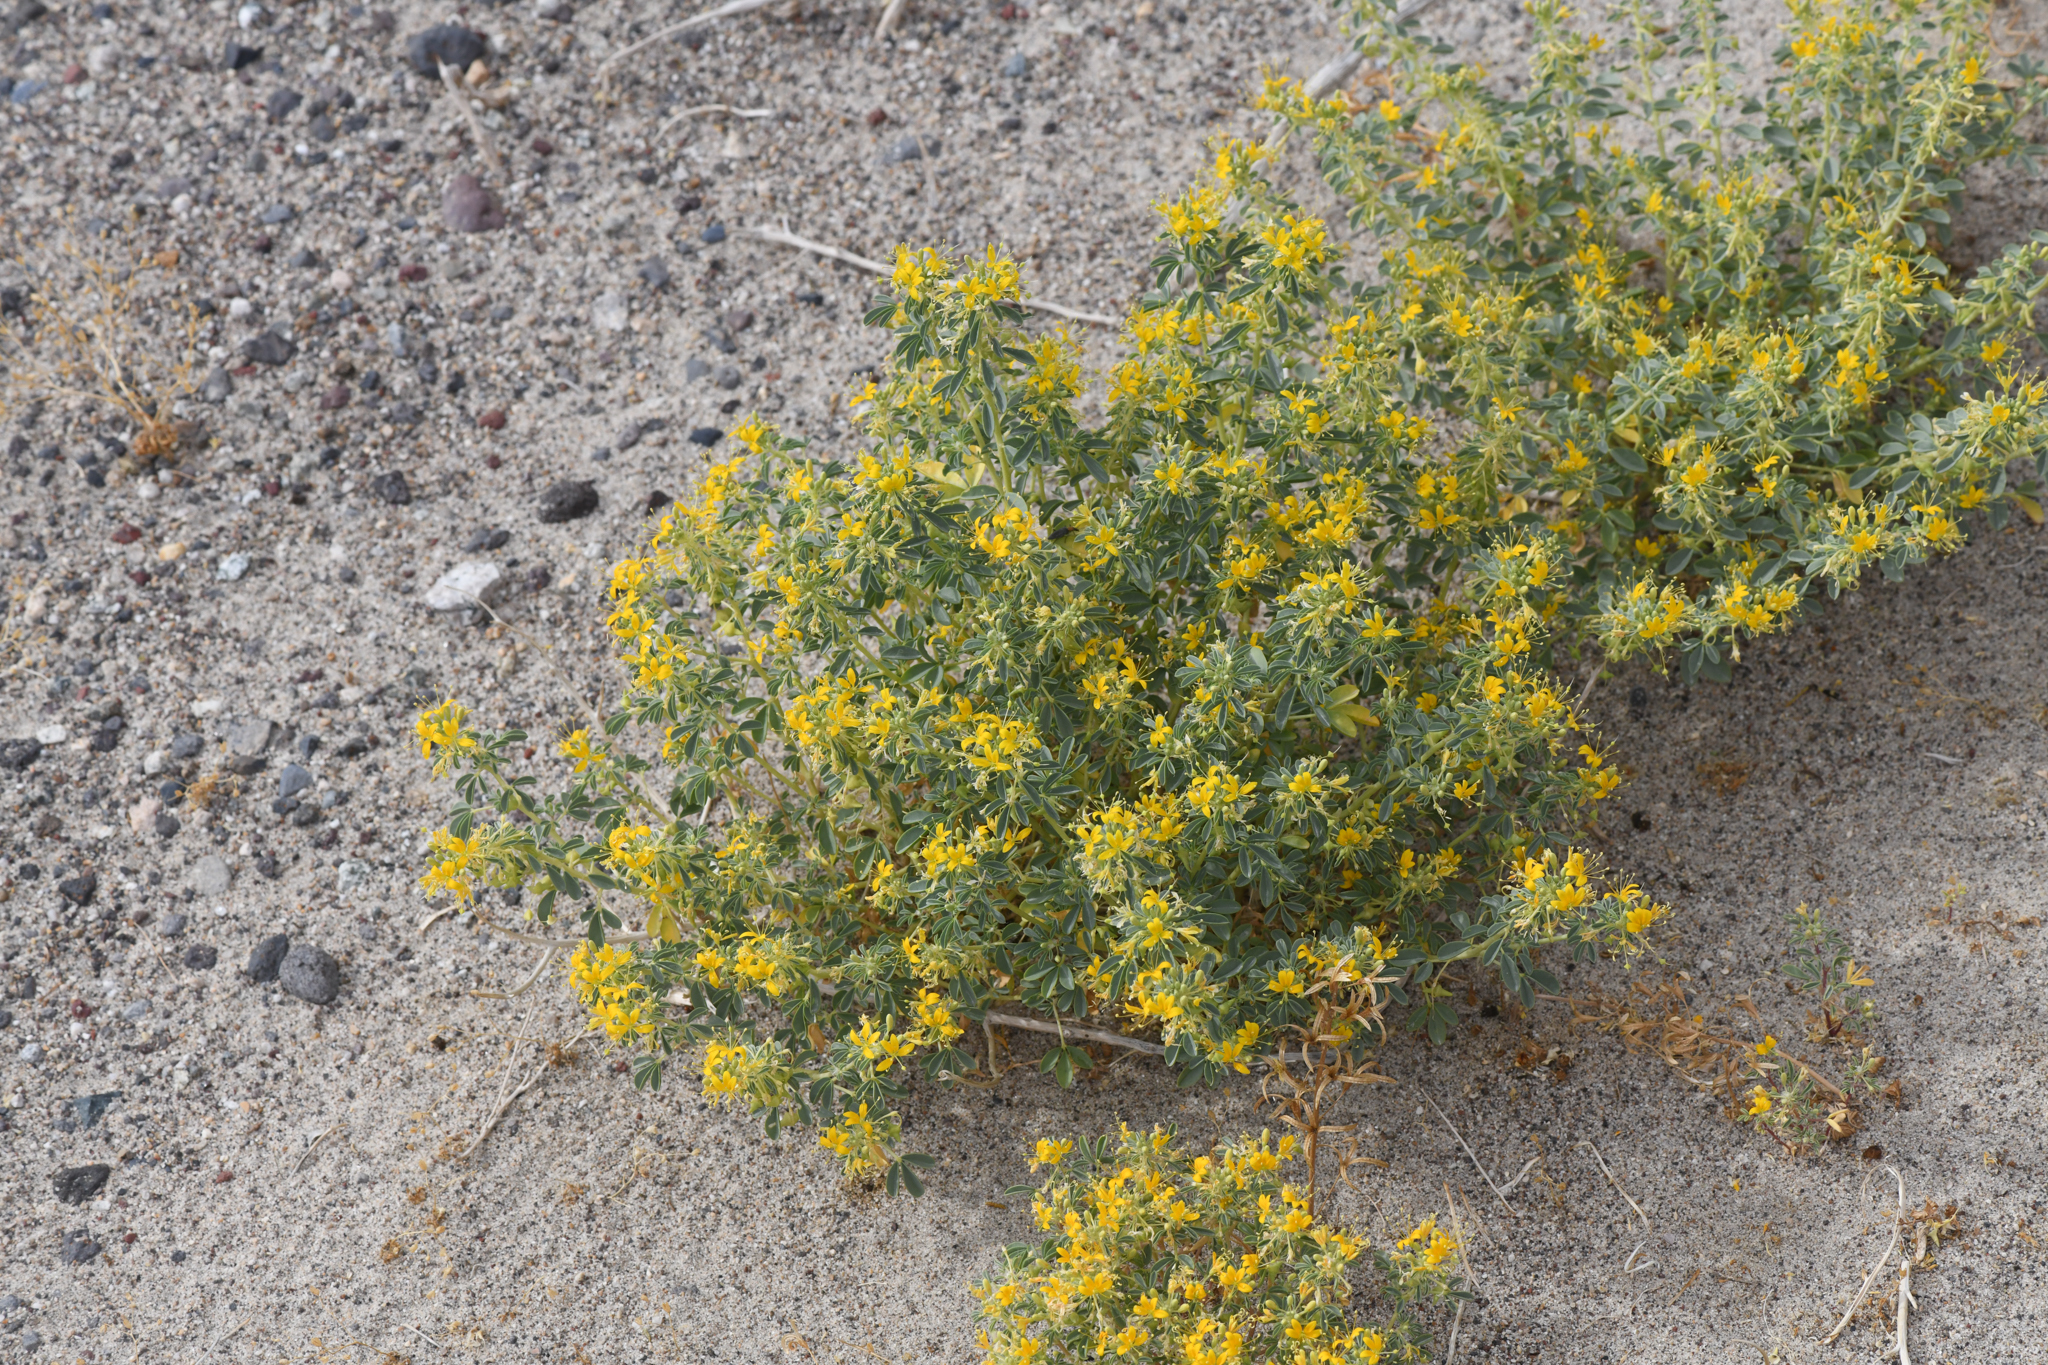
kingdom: Plantae
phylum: Tracheophyta
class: Magnoliopsida
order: Brassicales
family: Cleomaceae
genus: Cleomella
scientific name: Cleomella obtusifolia
